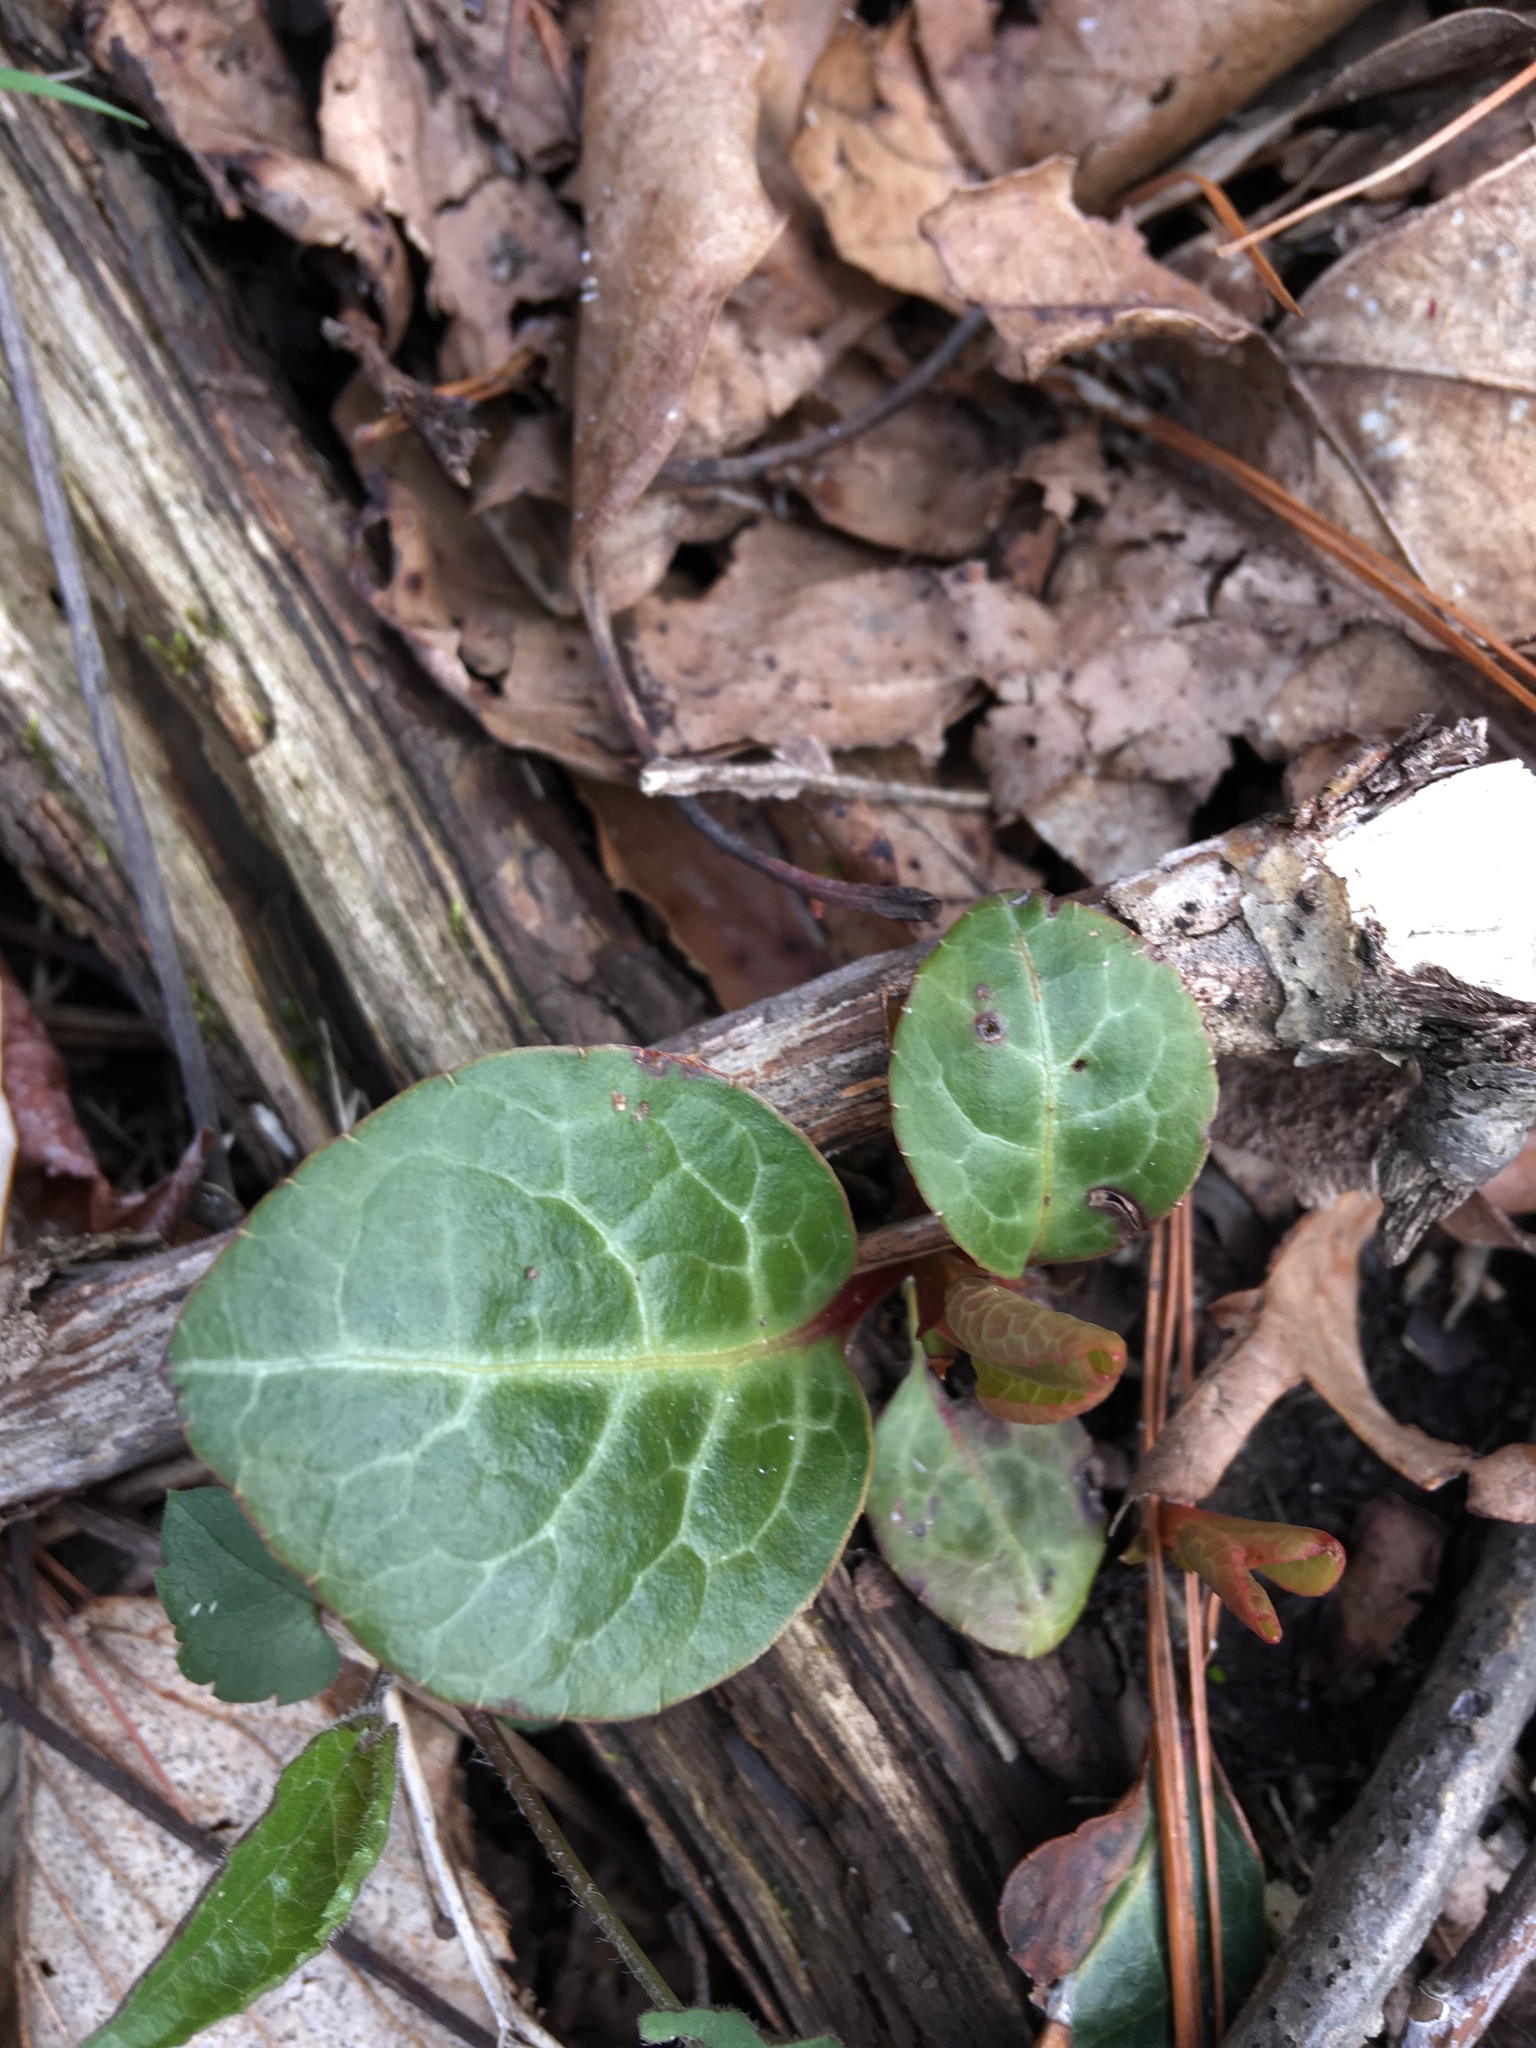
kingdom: Plantae
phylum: Tracheophyta
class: Magnoliopsida
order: Ericales
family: Ericaceae
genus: Pyrola
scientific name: Pyrola americana
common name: American wintergreen
